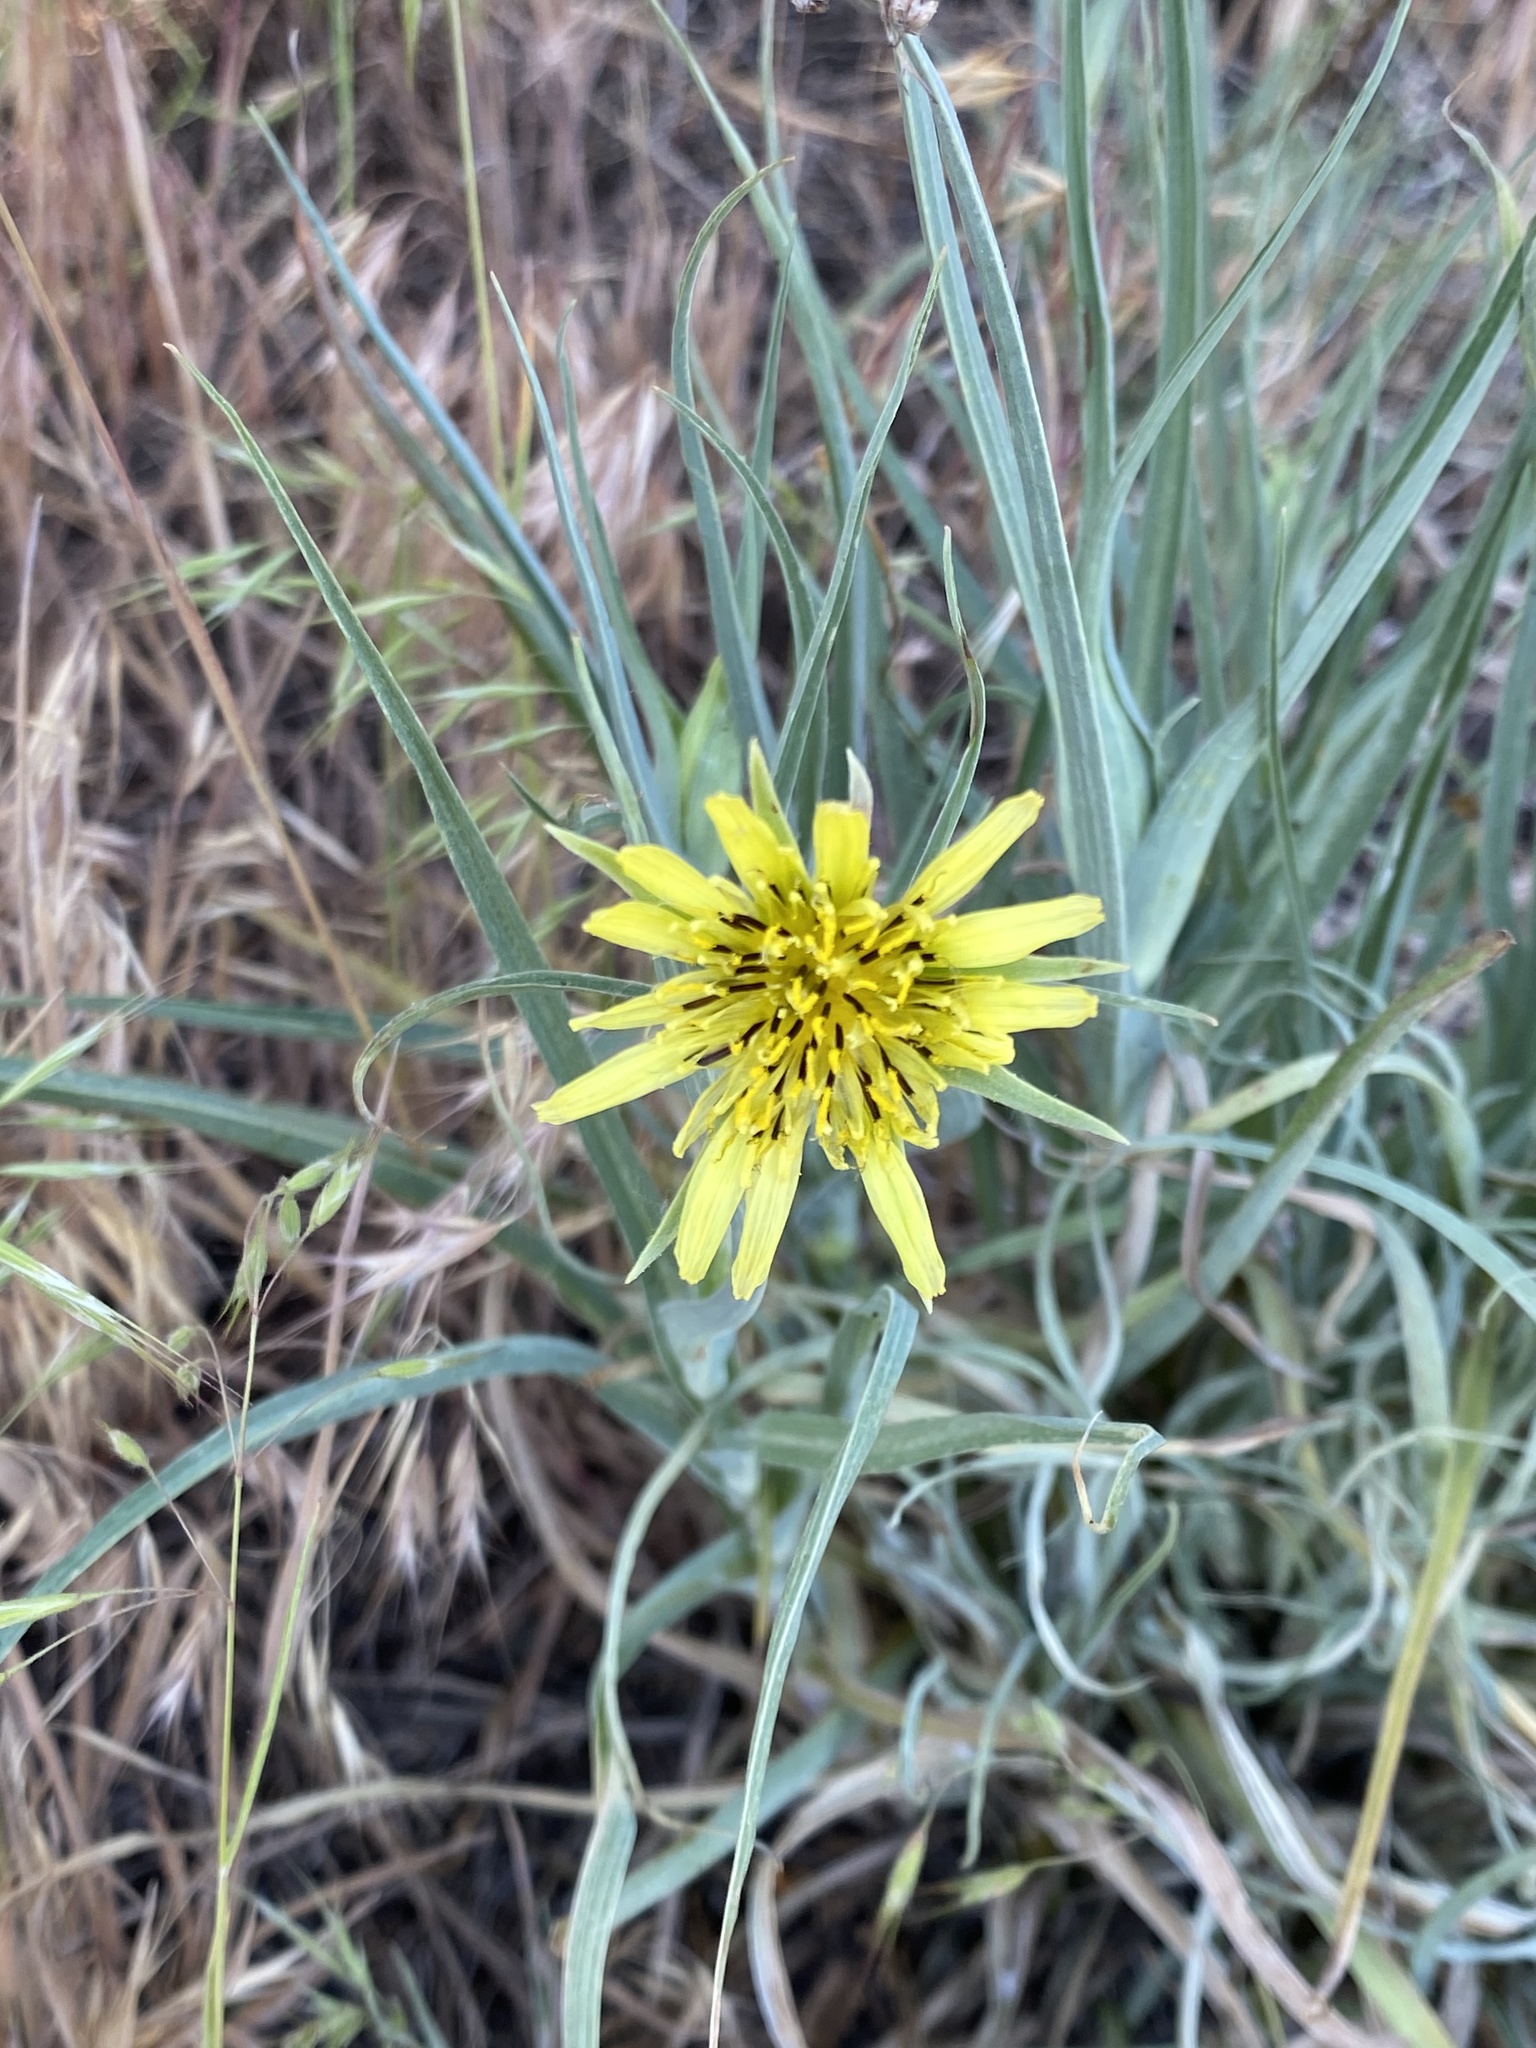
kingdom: Plantae
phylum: Tracheophyta
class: Magnoliopsida
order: Asterales
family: Asteraceae
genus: Tragopogon
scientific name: Tragopogon dubius
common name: Yellow salsify
